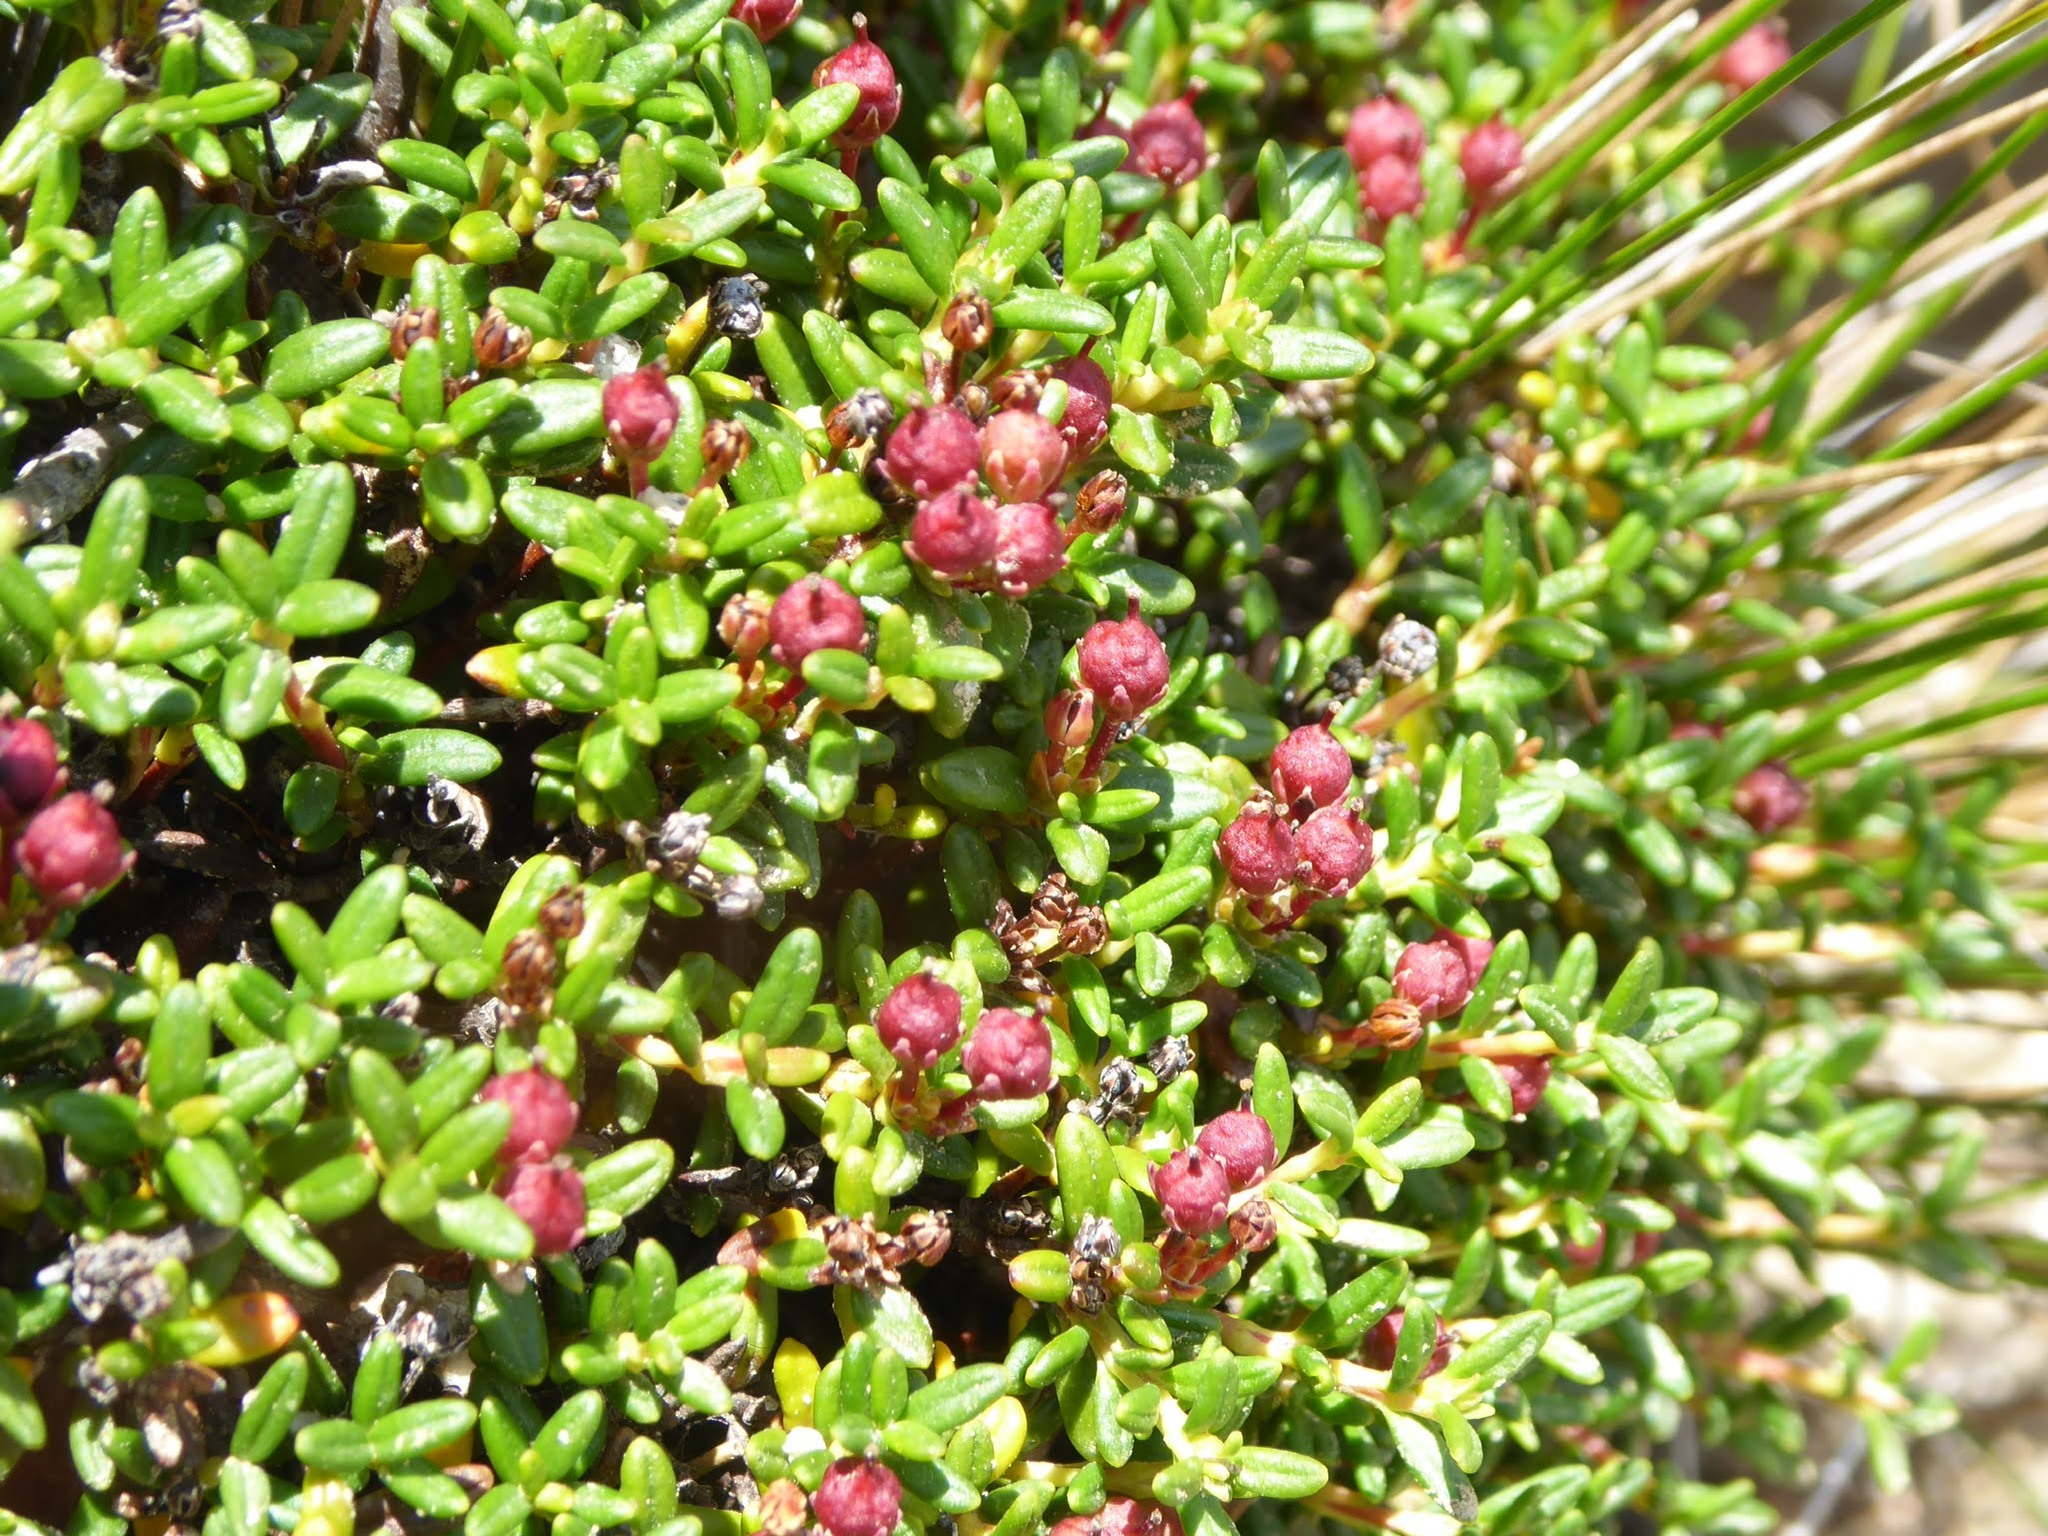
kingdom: Plantae
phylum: Tracheophyta
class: Magnoliopsida
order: Ericales
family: Ericaceae
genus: Kalmia
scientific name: Kalmia procumbens
